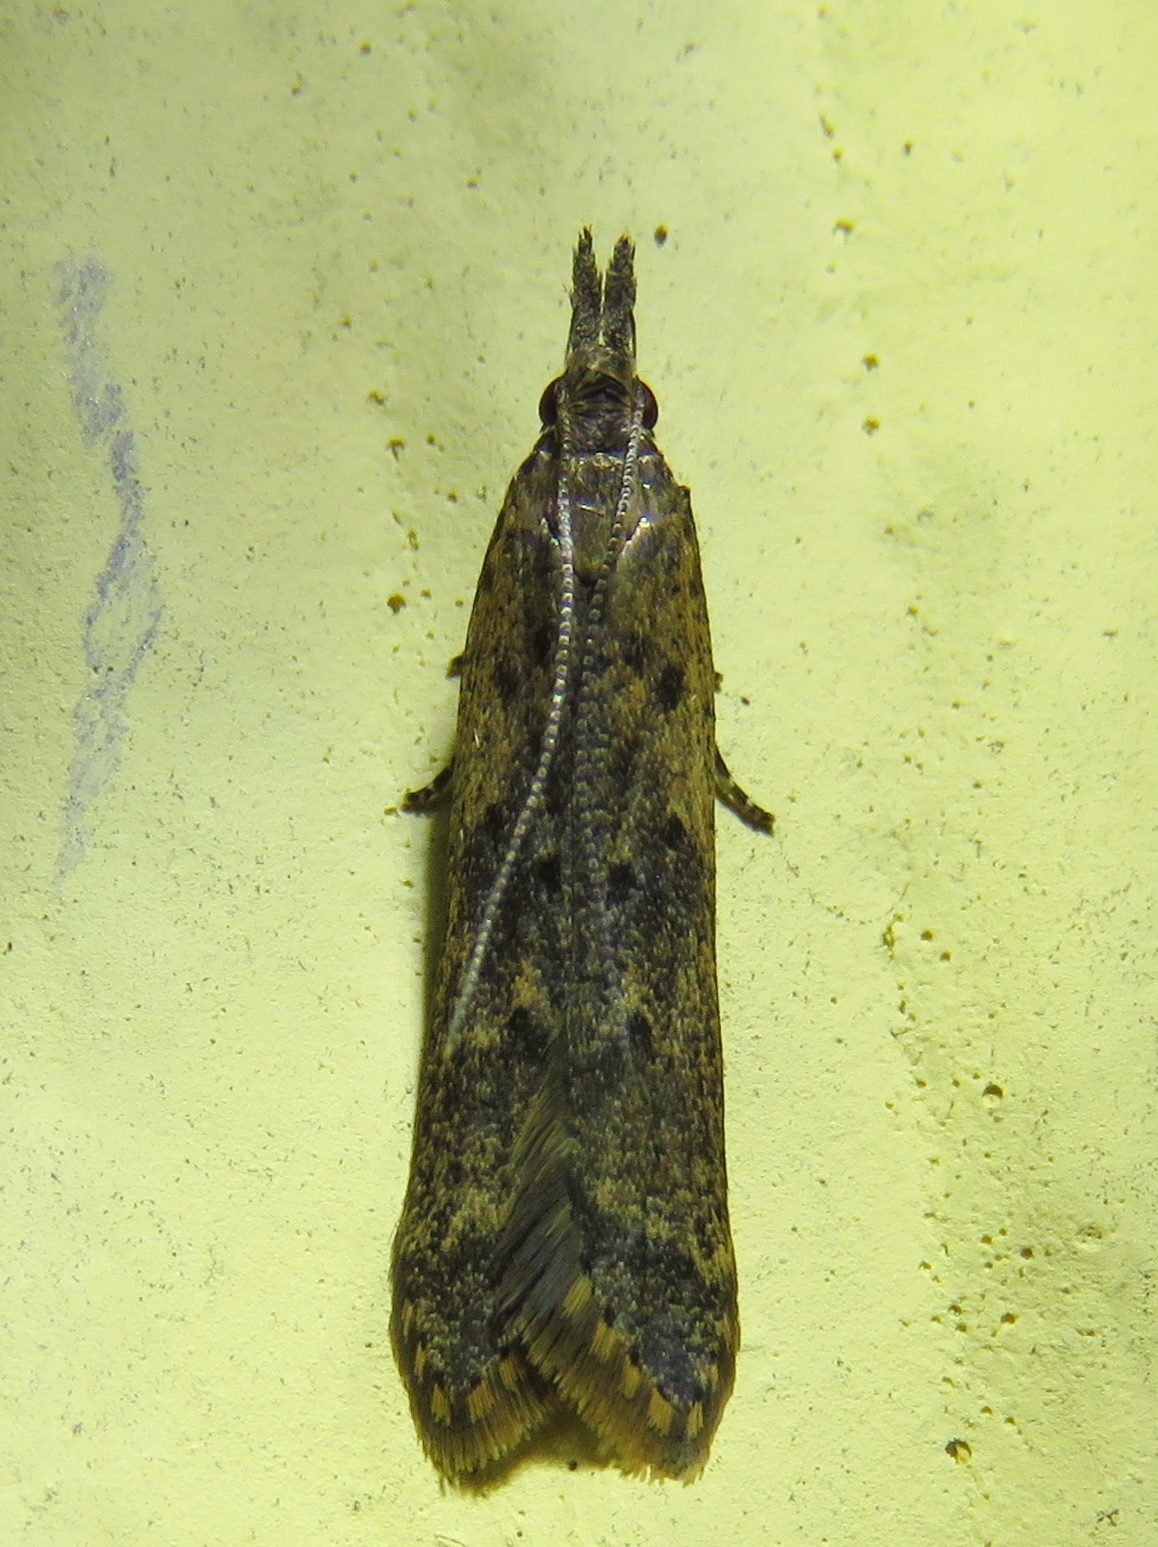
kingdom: Animalia
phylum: Arthropoda
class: Insecta
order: Lepidoptera
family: Gelechiidae
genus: Dichomeris
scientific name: Dichomeris ligulella
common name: Moth
